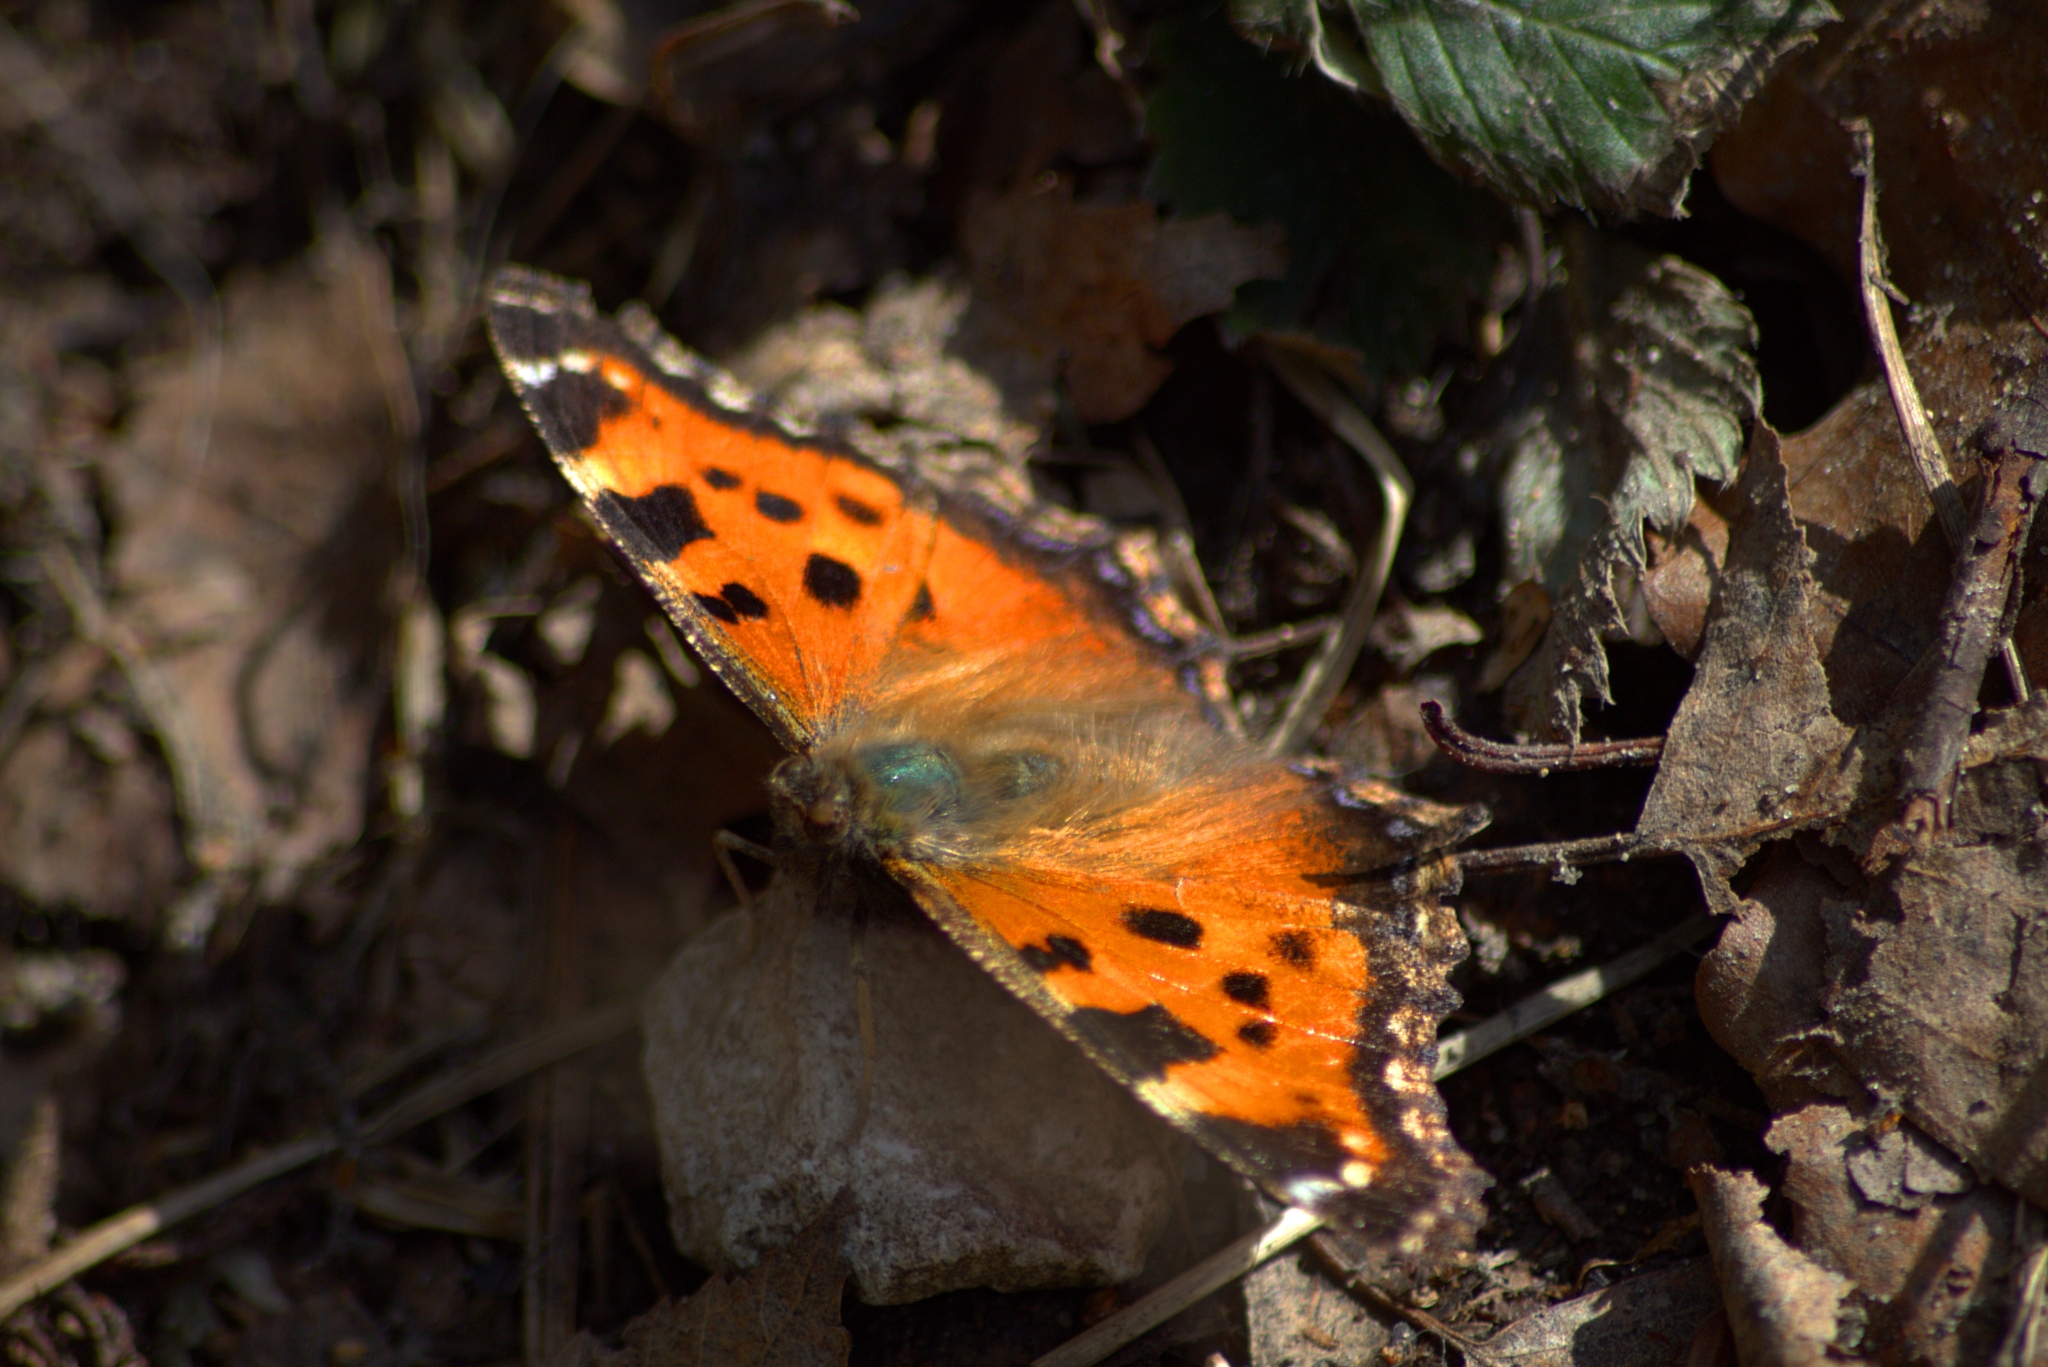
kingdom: Animalia
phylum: Arthropoda
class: Insecta
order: Lepidoptera
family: Nymphalidae
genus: Nymphalis
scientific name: Nymphalis xanthomelas
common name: Scarce tortoiseshell
